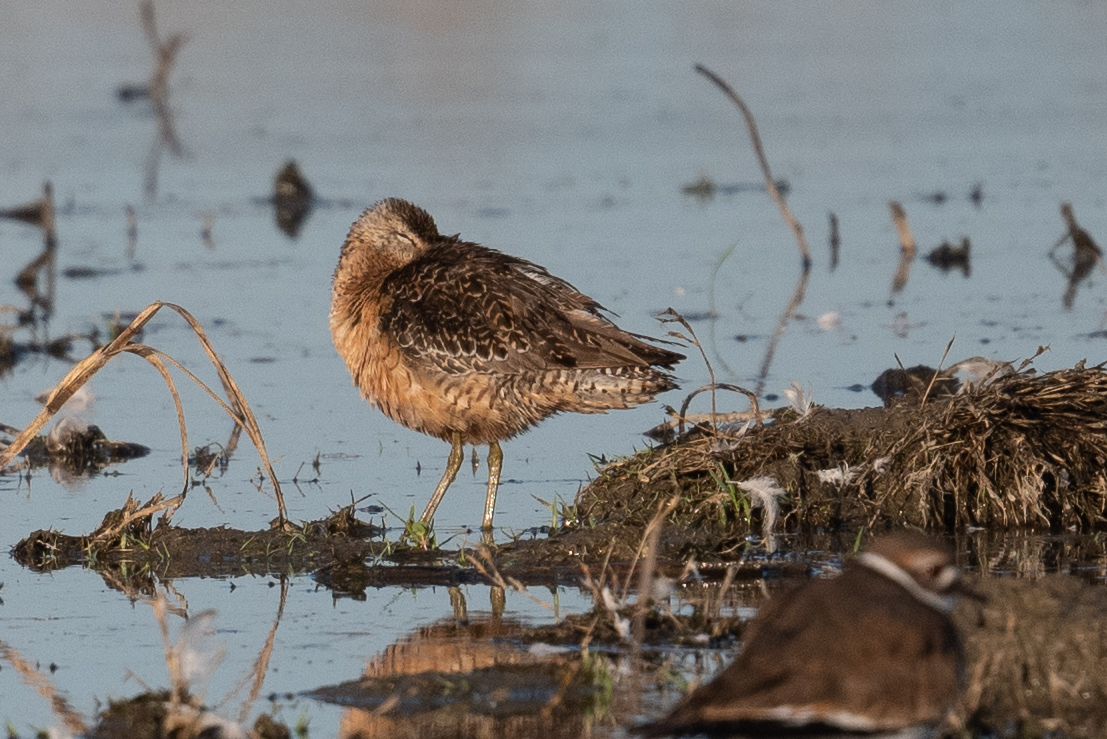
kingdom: Animalia
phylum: Chordata
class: Aves
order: Charadriiformes
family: Scolopacidae
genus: Limnodromus
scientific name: Limnodromus scolopaceus
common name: Long-billed dowitcher
